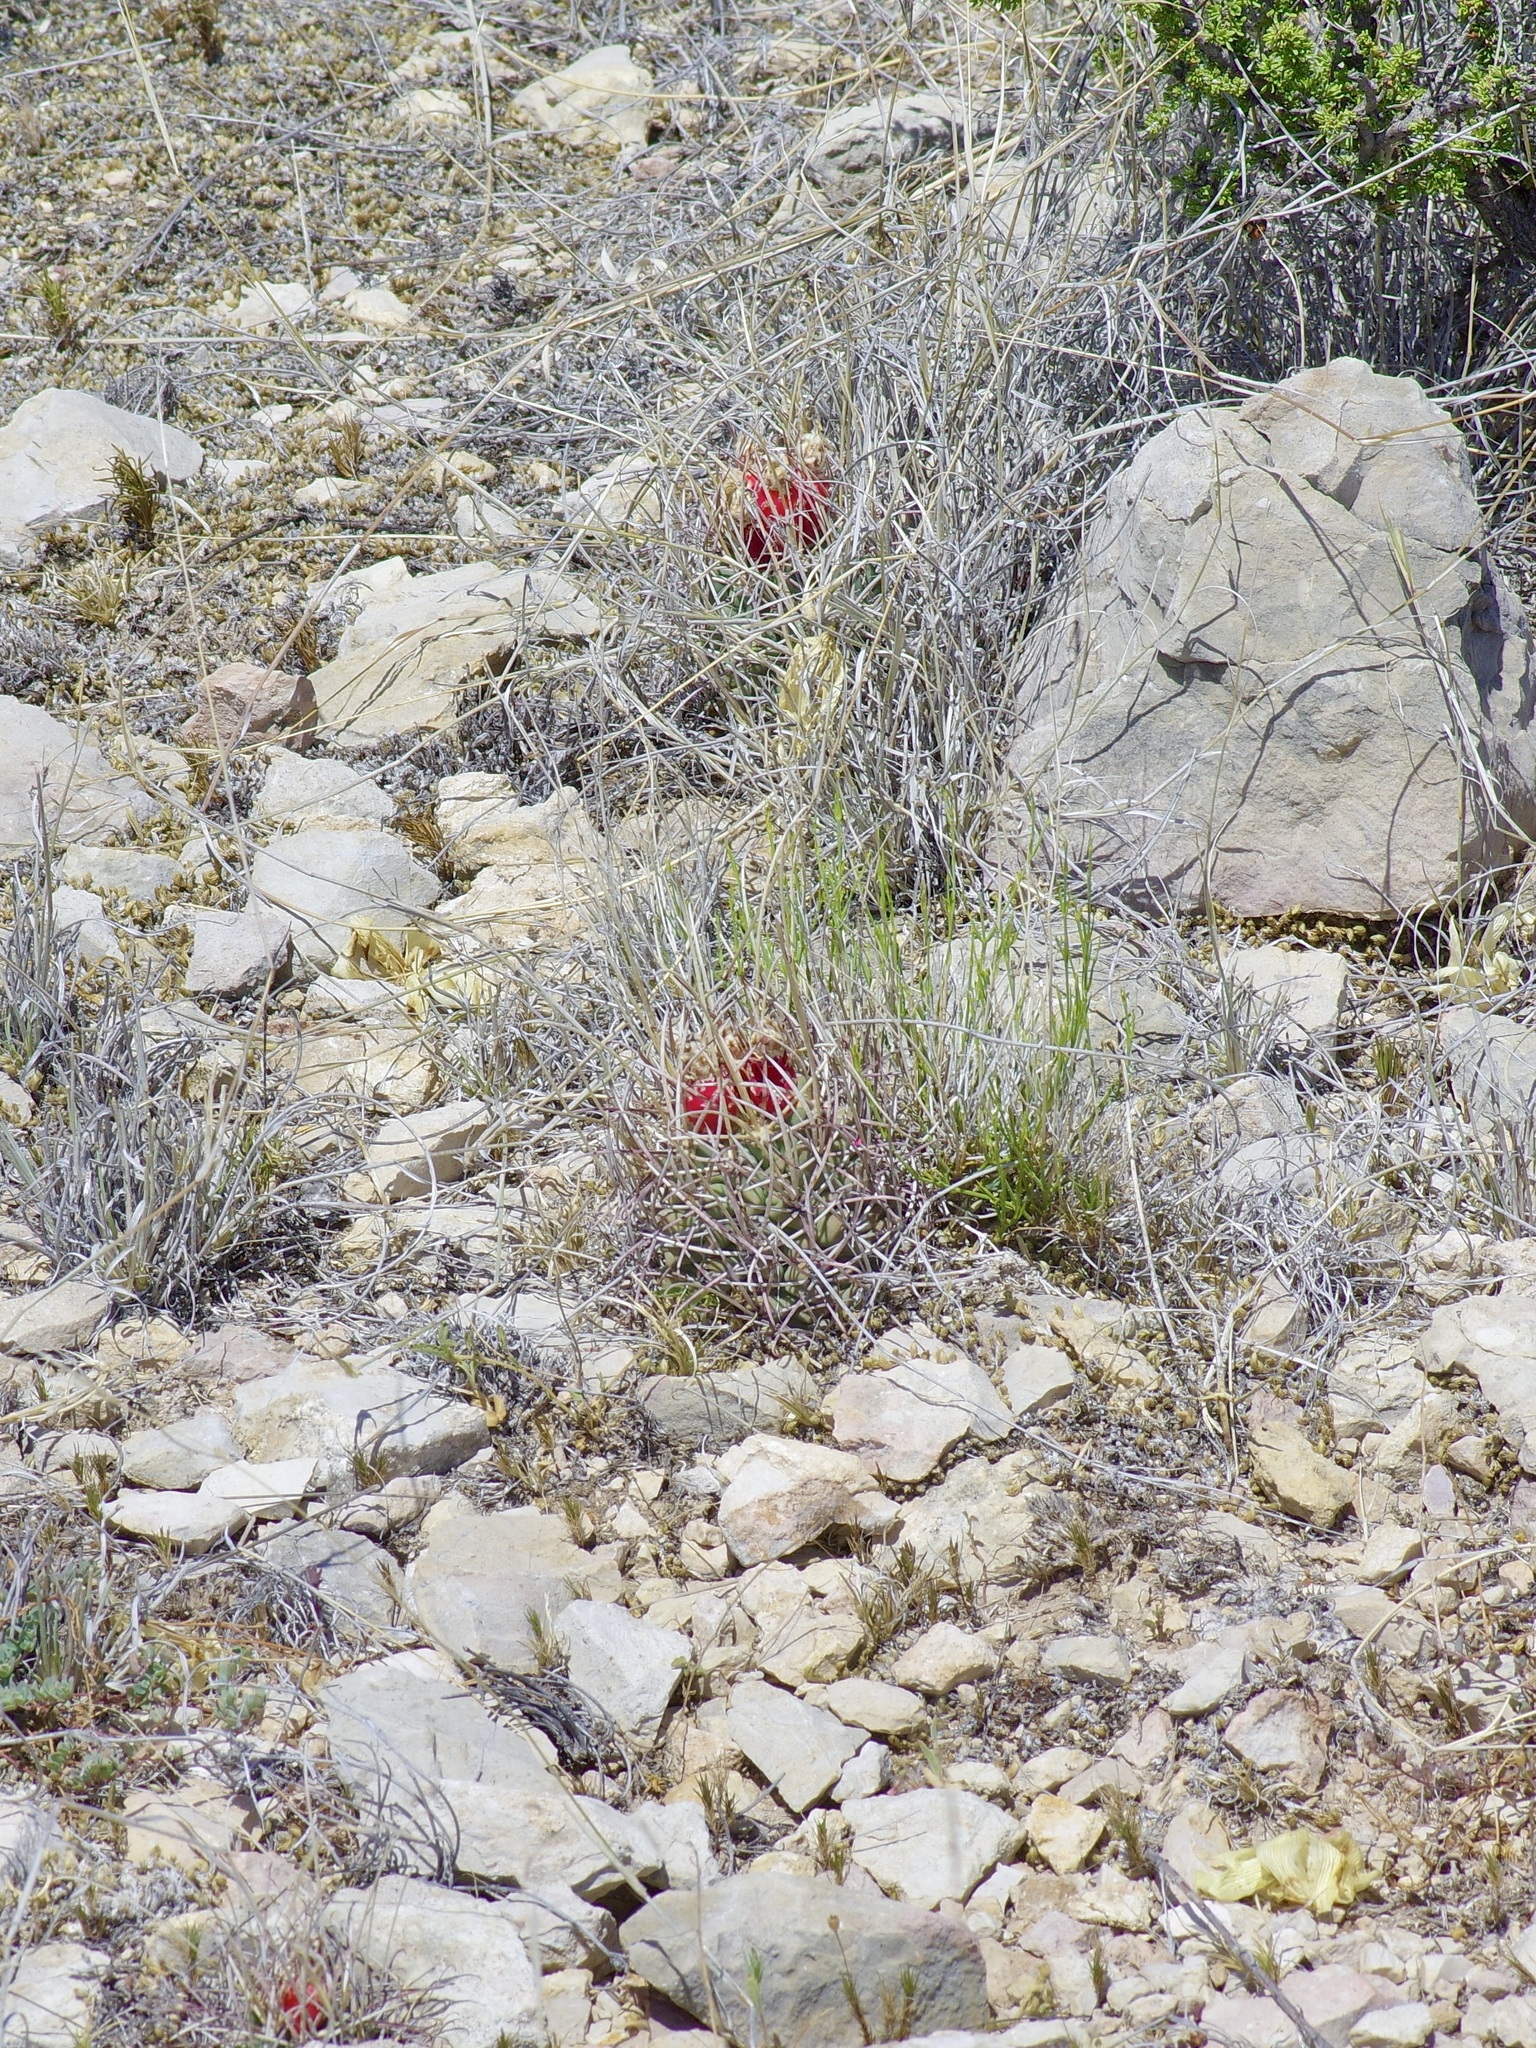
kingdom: Plantae
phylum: Tracheophyta
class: Magnoliopsida
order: Caryophyllales
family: Cactaceae
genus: Ferocactus
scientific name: Ferocactus uncinatus
